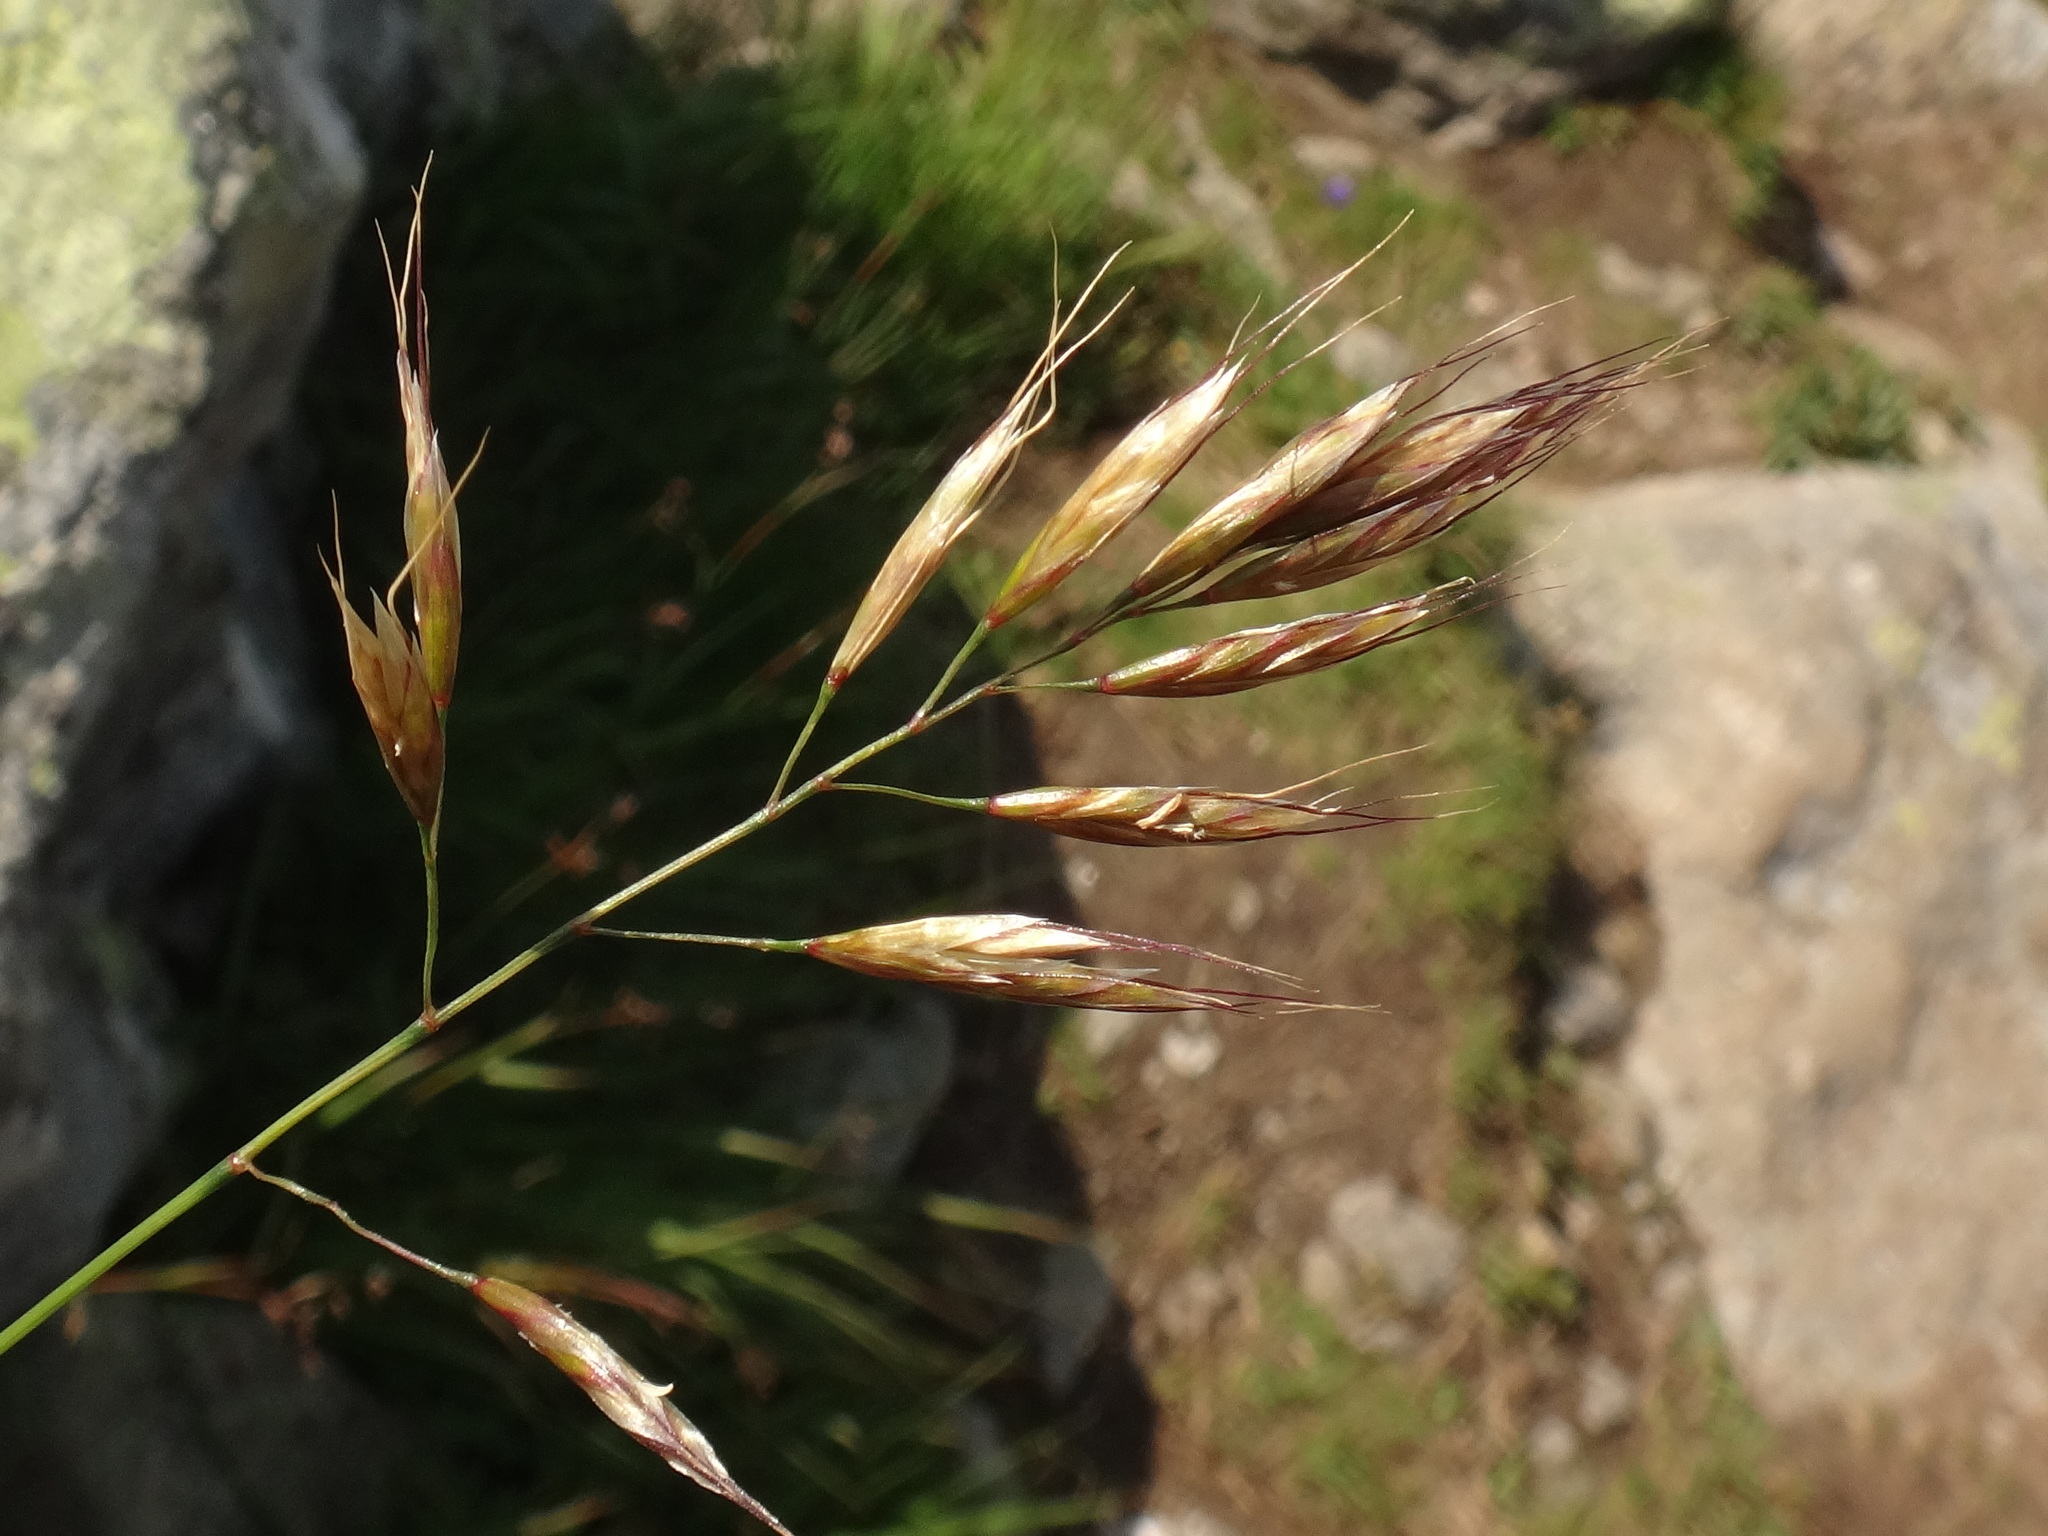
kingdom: Plantae
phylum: Tracheophyta
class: Liliopsida
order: Poales
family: Poaceae
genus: Helictochloa
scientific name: Helictochloa versicolor
